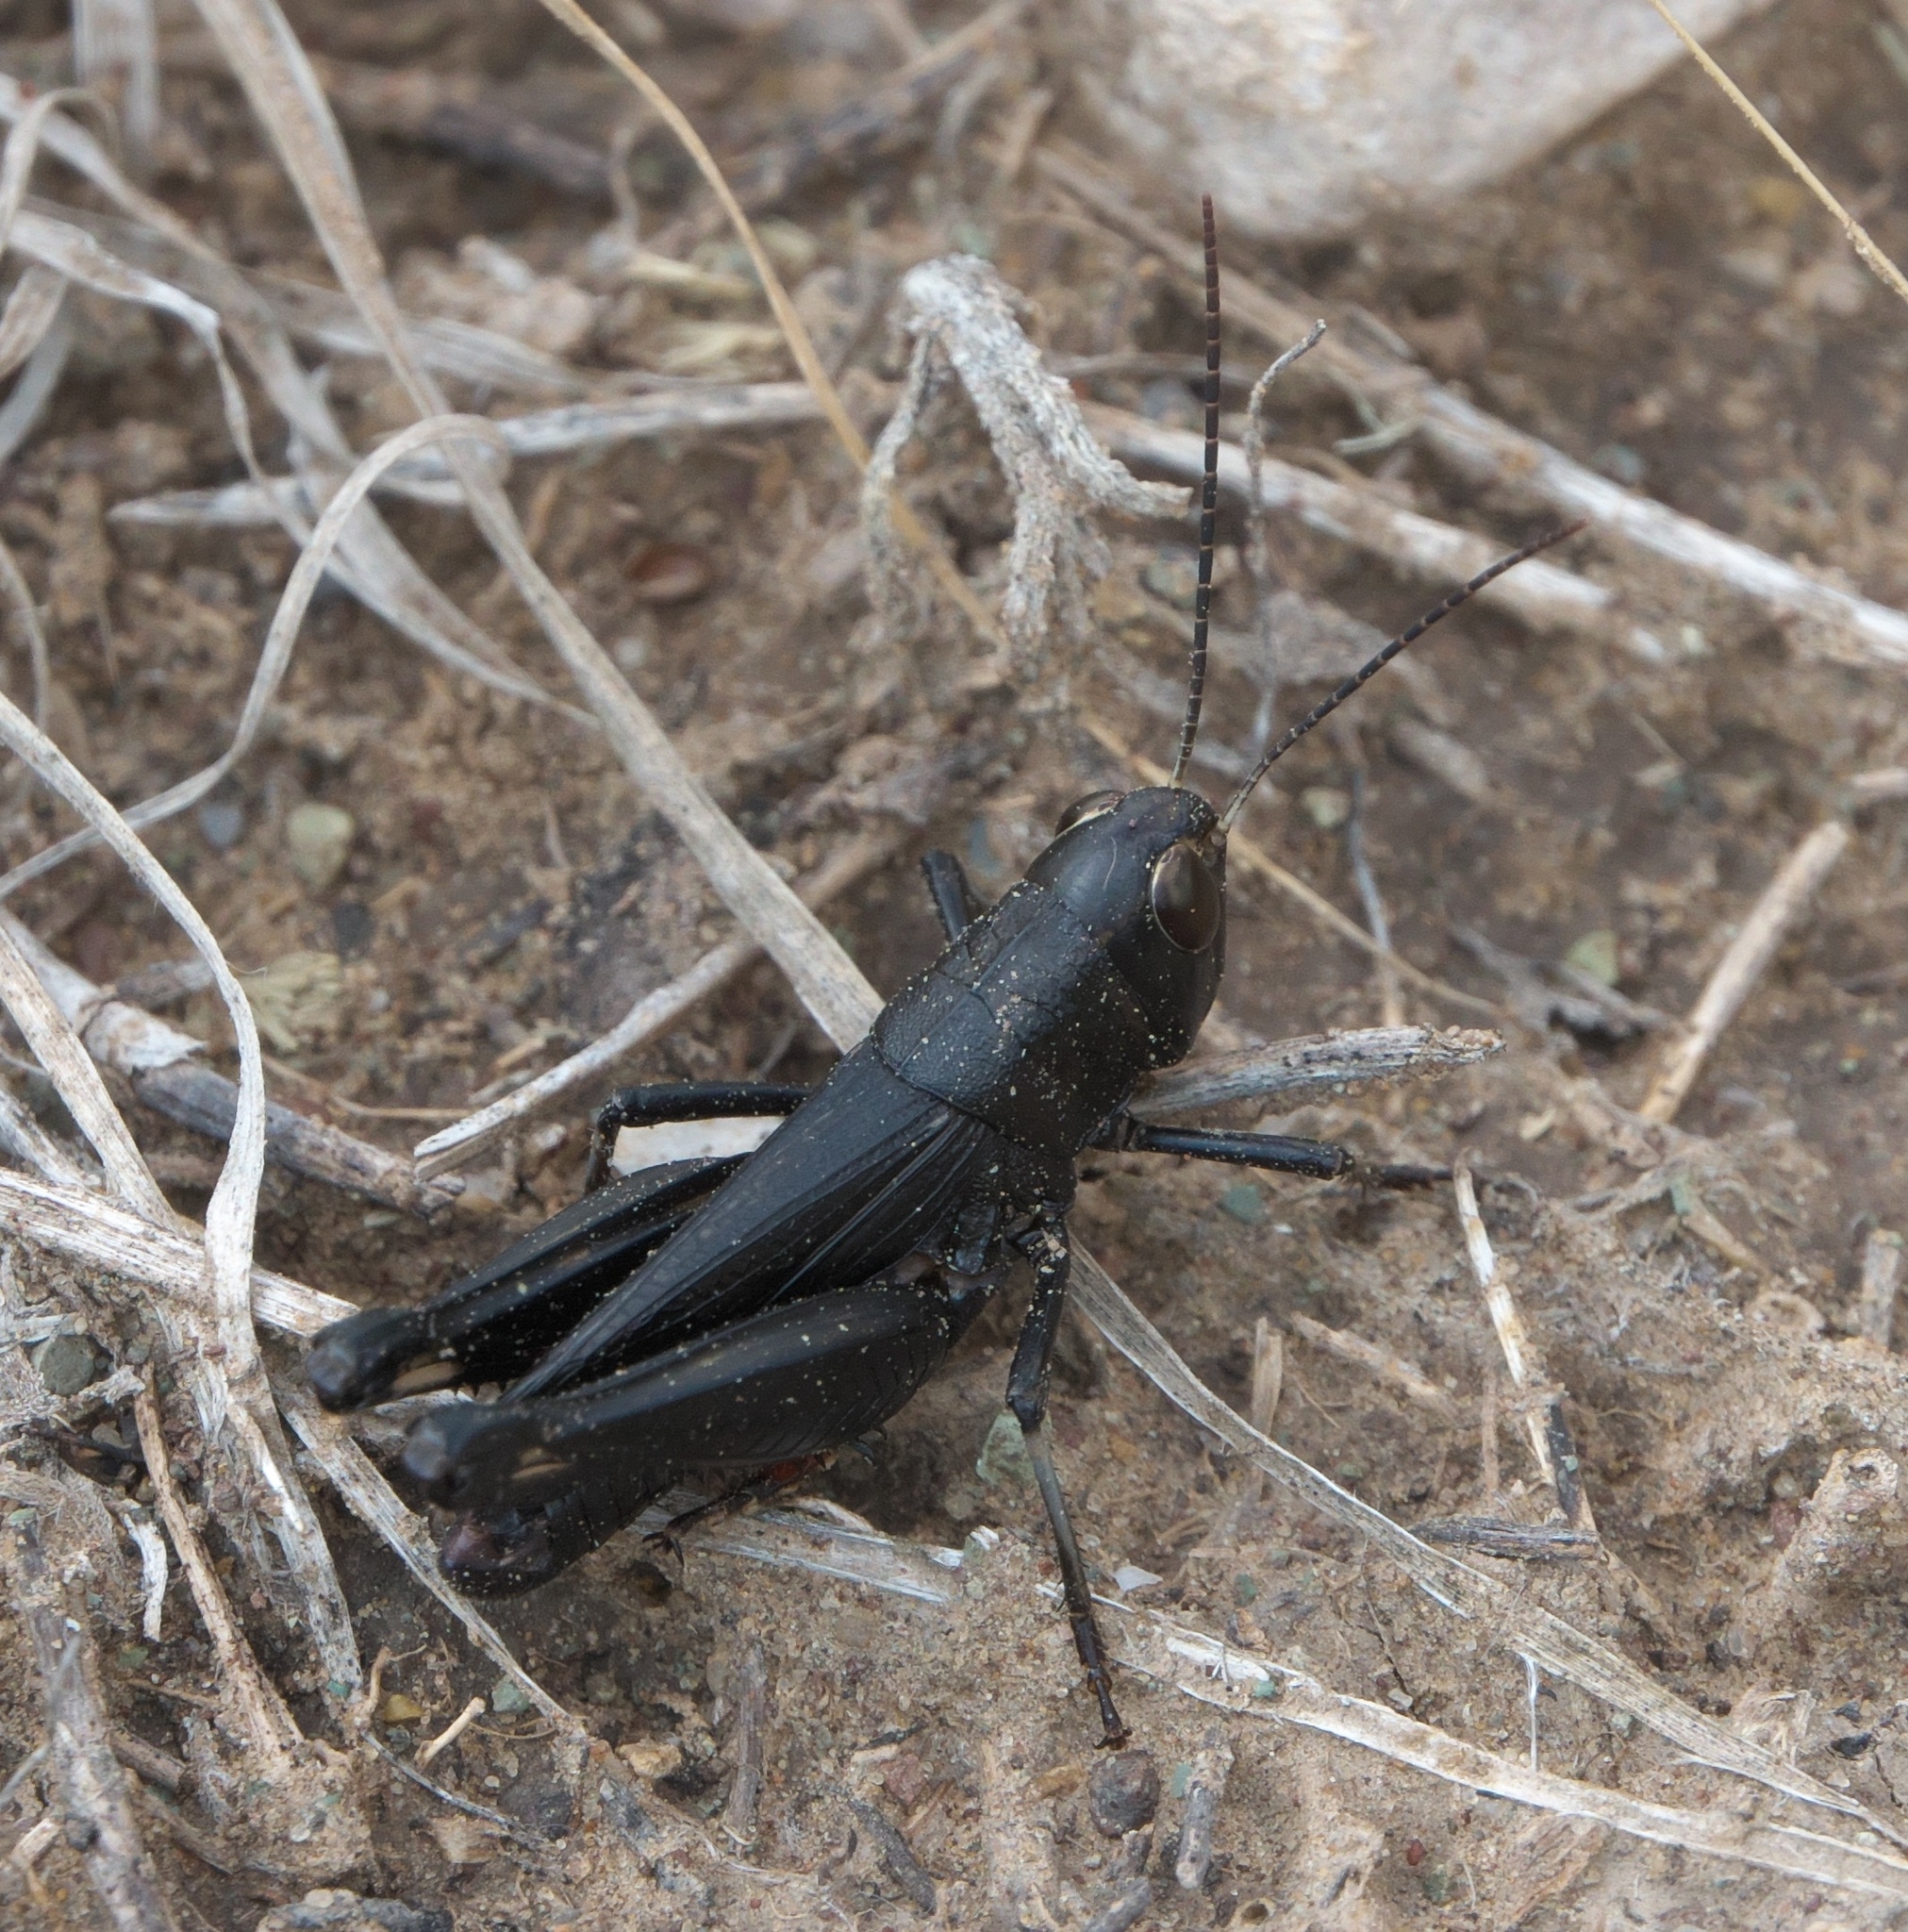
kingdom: Animalia
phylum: Arthropoda
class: Insecta
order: Orthoptera
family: Acrididae
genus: Boopedon
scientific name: Boopedon nubilum
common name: Ebony grasshopper
